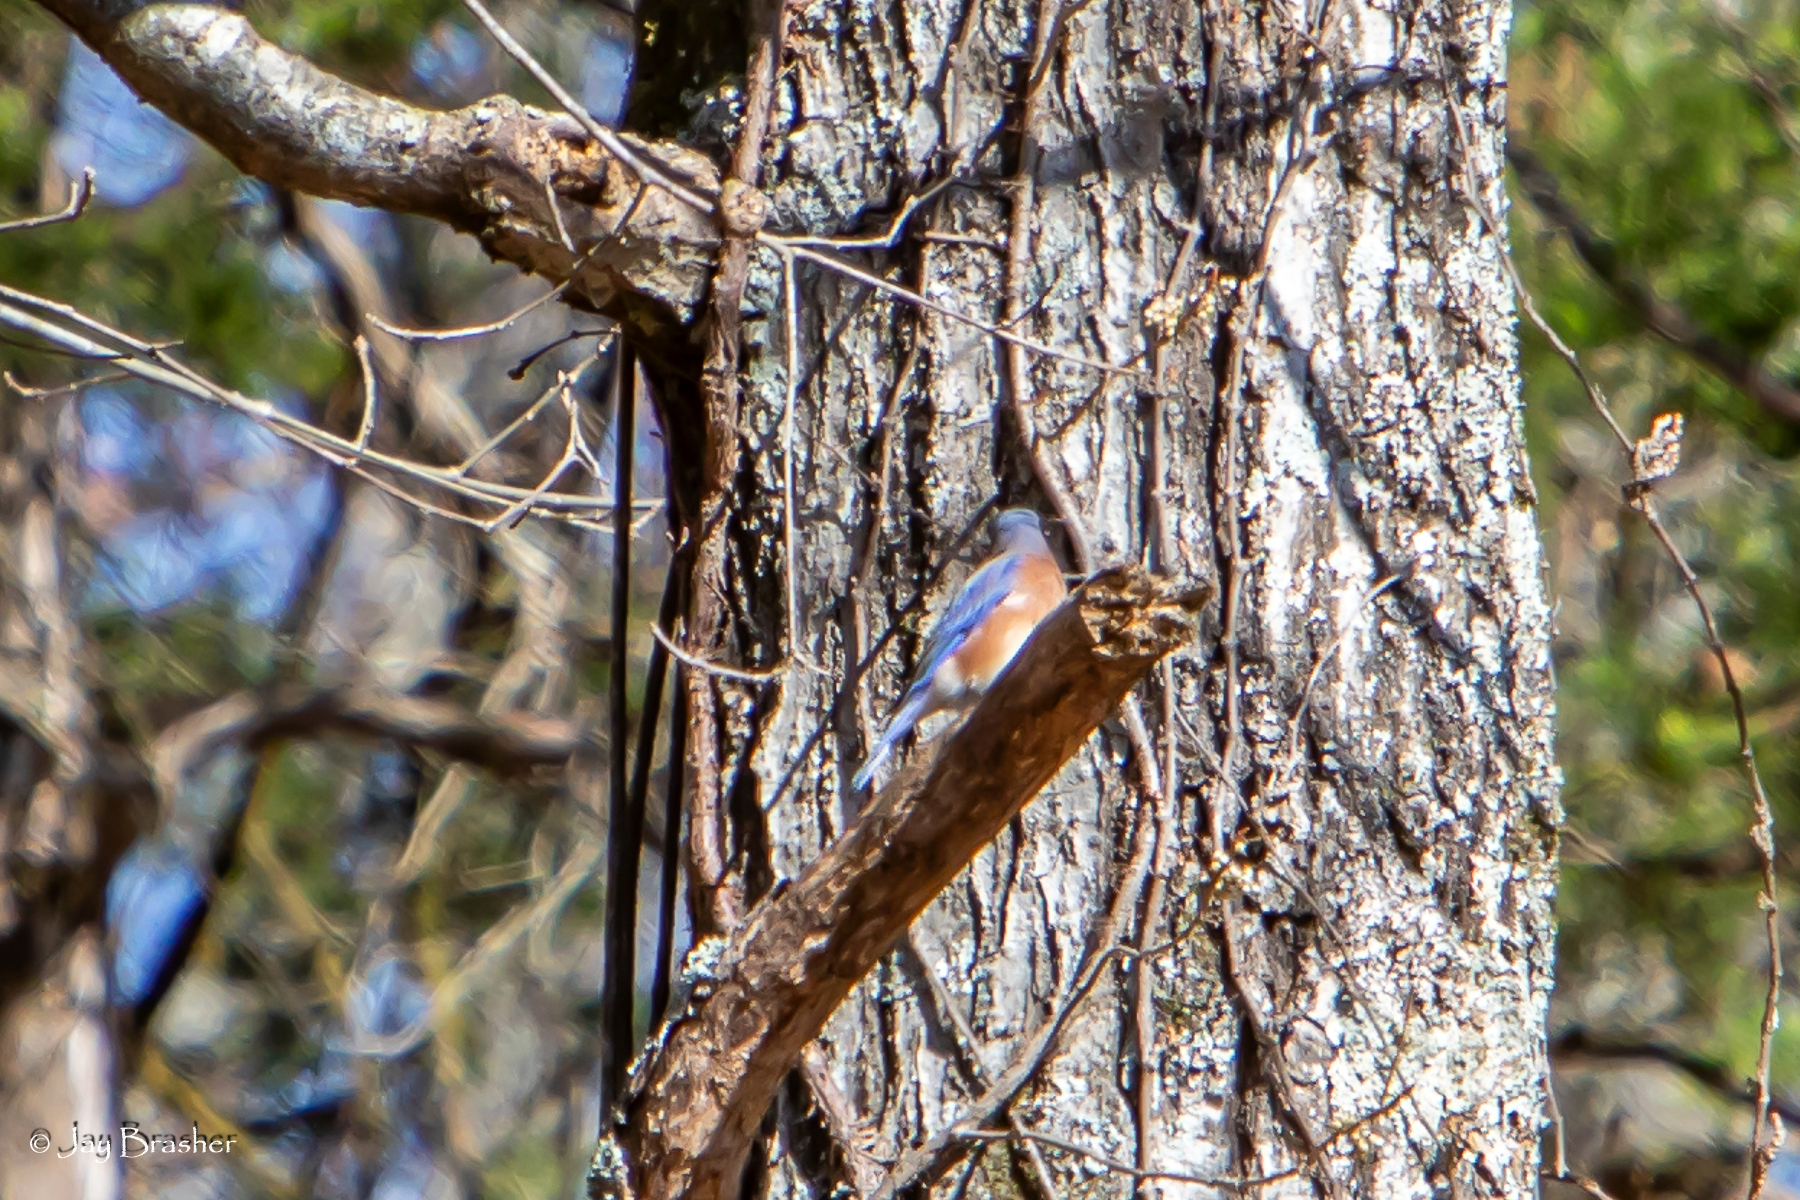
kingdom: Animalia
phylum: Chordata
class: Aves
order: Passeriformes
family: Turdidae
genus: Sialia
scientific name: Sialia sialis
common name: Eastern bluebird
